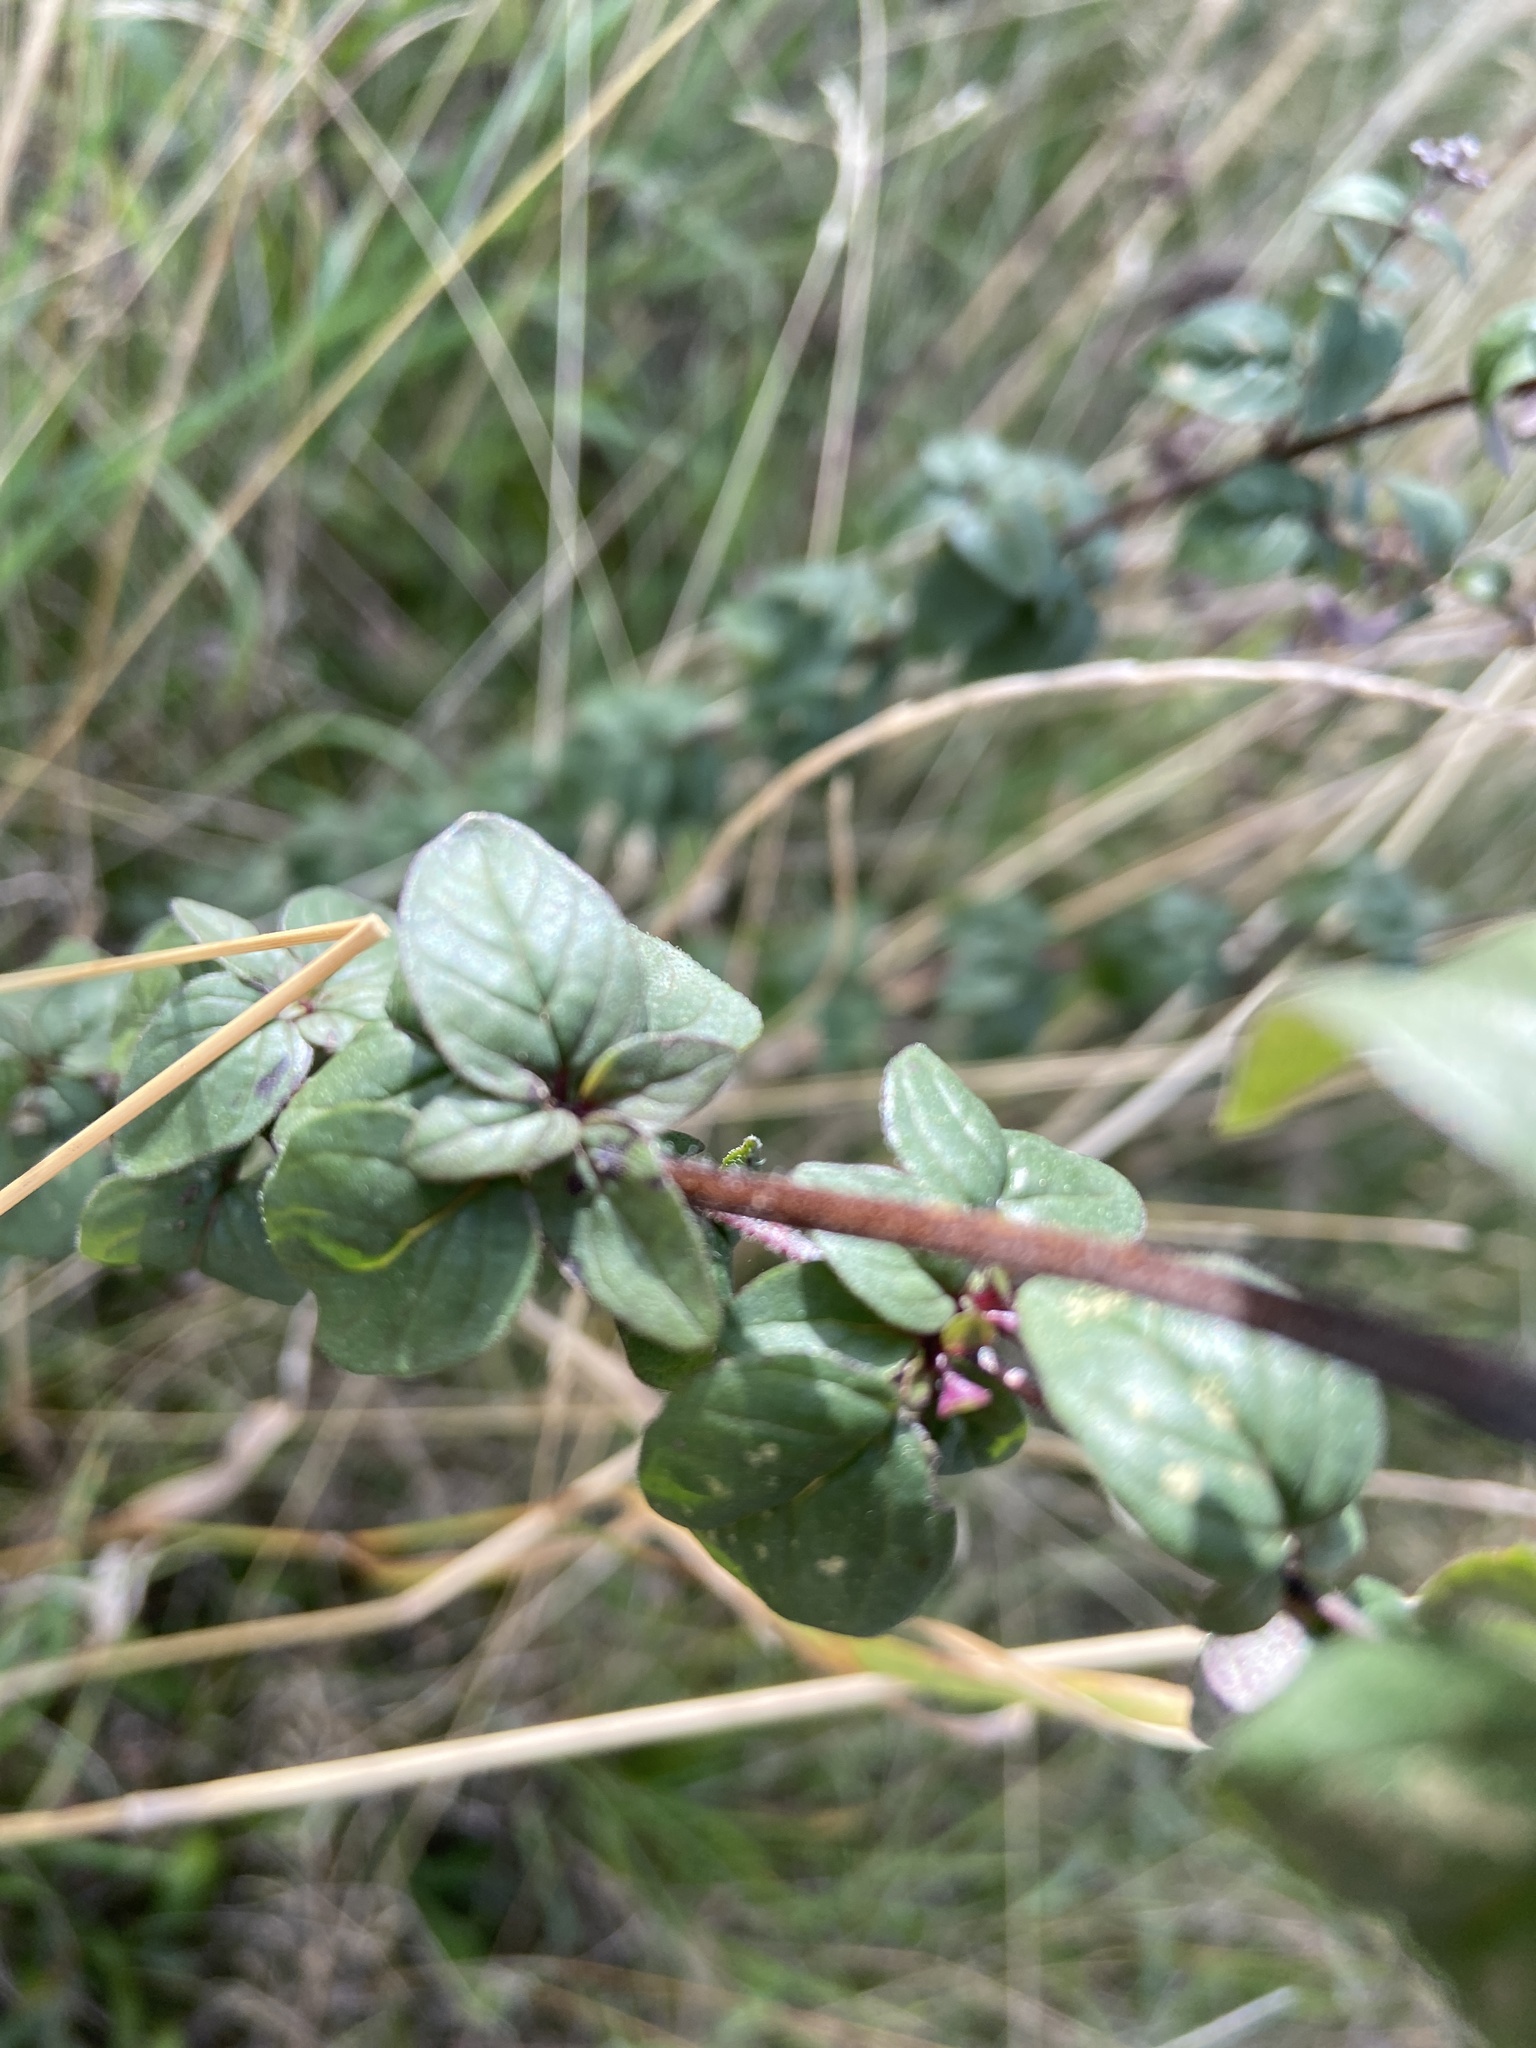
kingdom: Plantae
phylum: Tracheophyta
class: Magnoliopsida
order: Lamiales
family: Lamiaceae
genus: Origanum
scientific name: Origanum vulgare
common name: Wild marjoram
